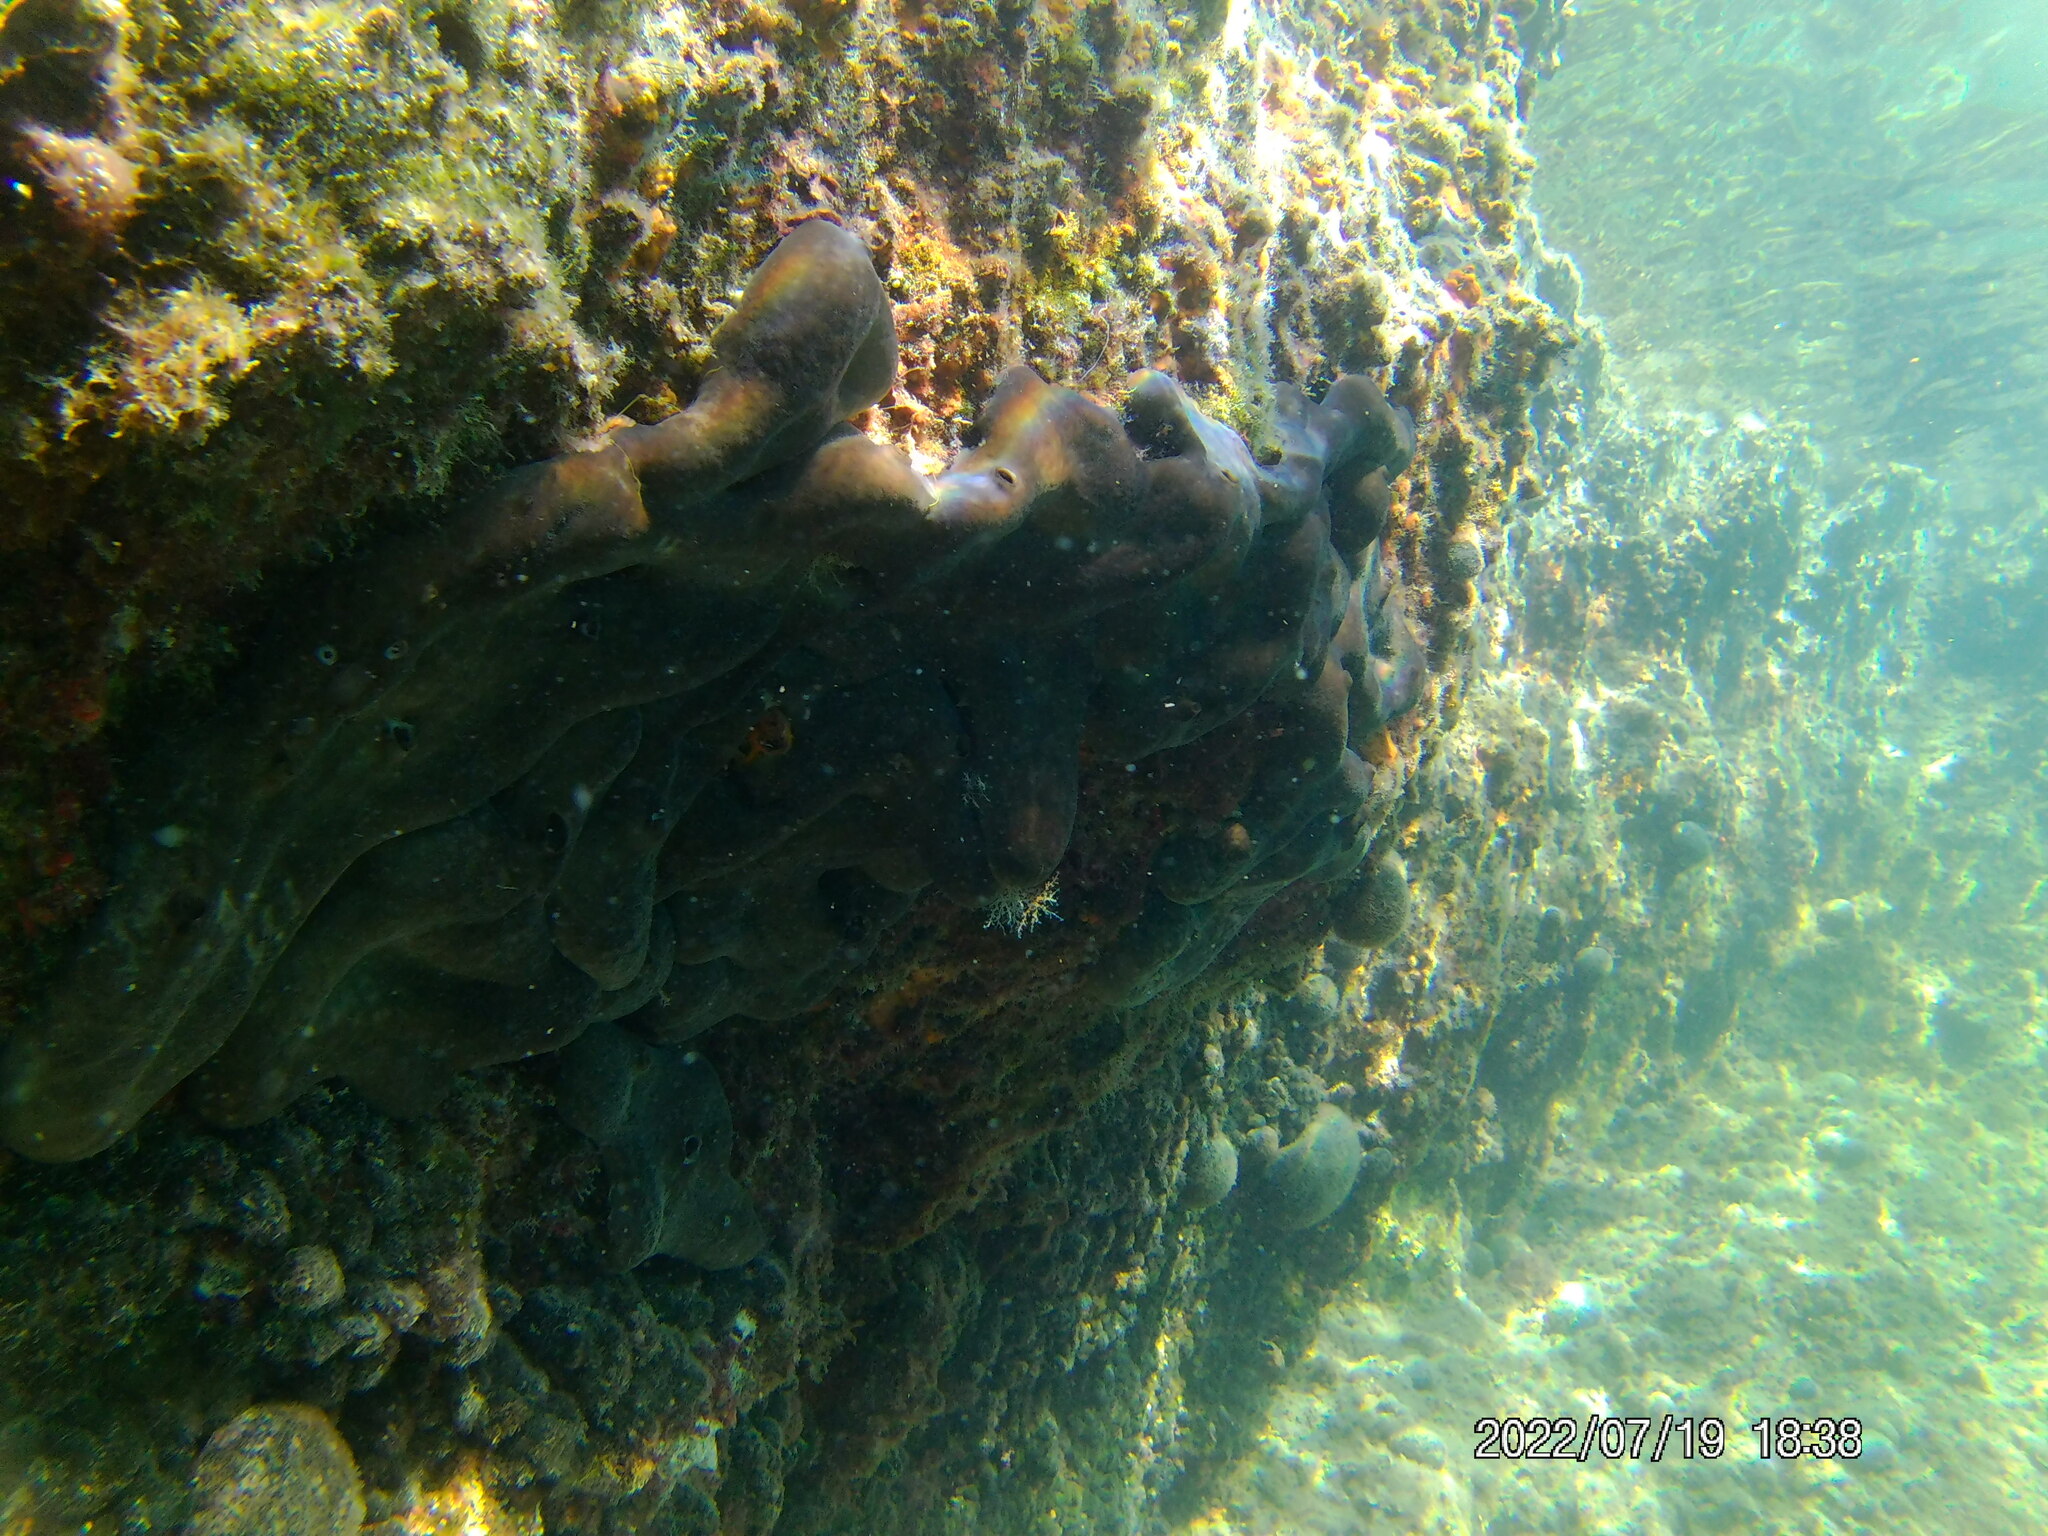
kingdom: Animalia
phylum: Porifera
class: Demospongiae
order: Chondrosiida
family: Chondrosiidae
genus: Chondrosia
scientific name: Chondrosia reniformis
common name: Chicken liver sponge
